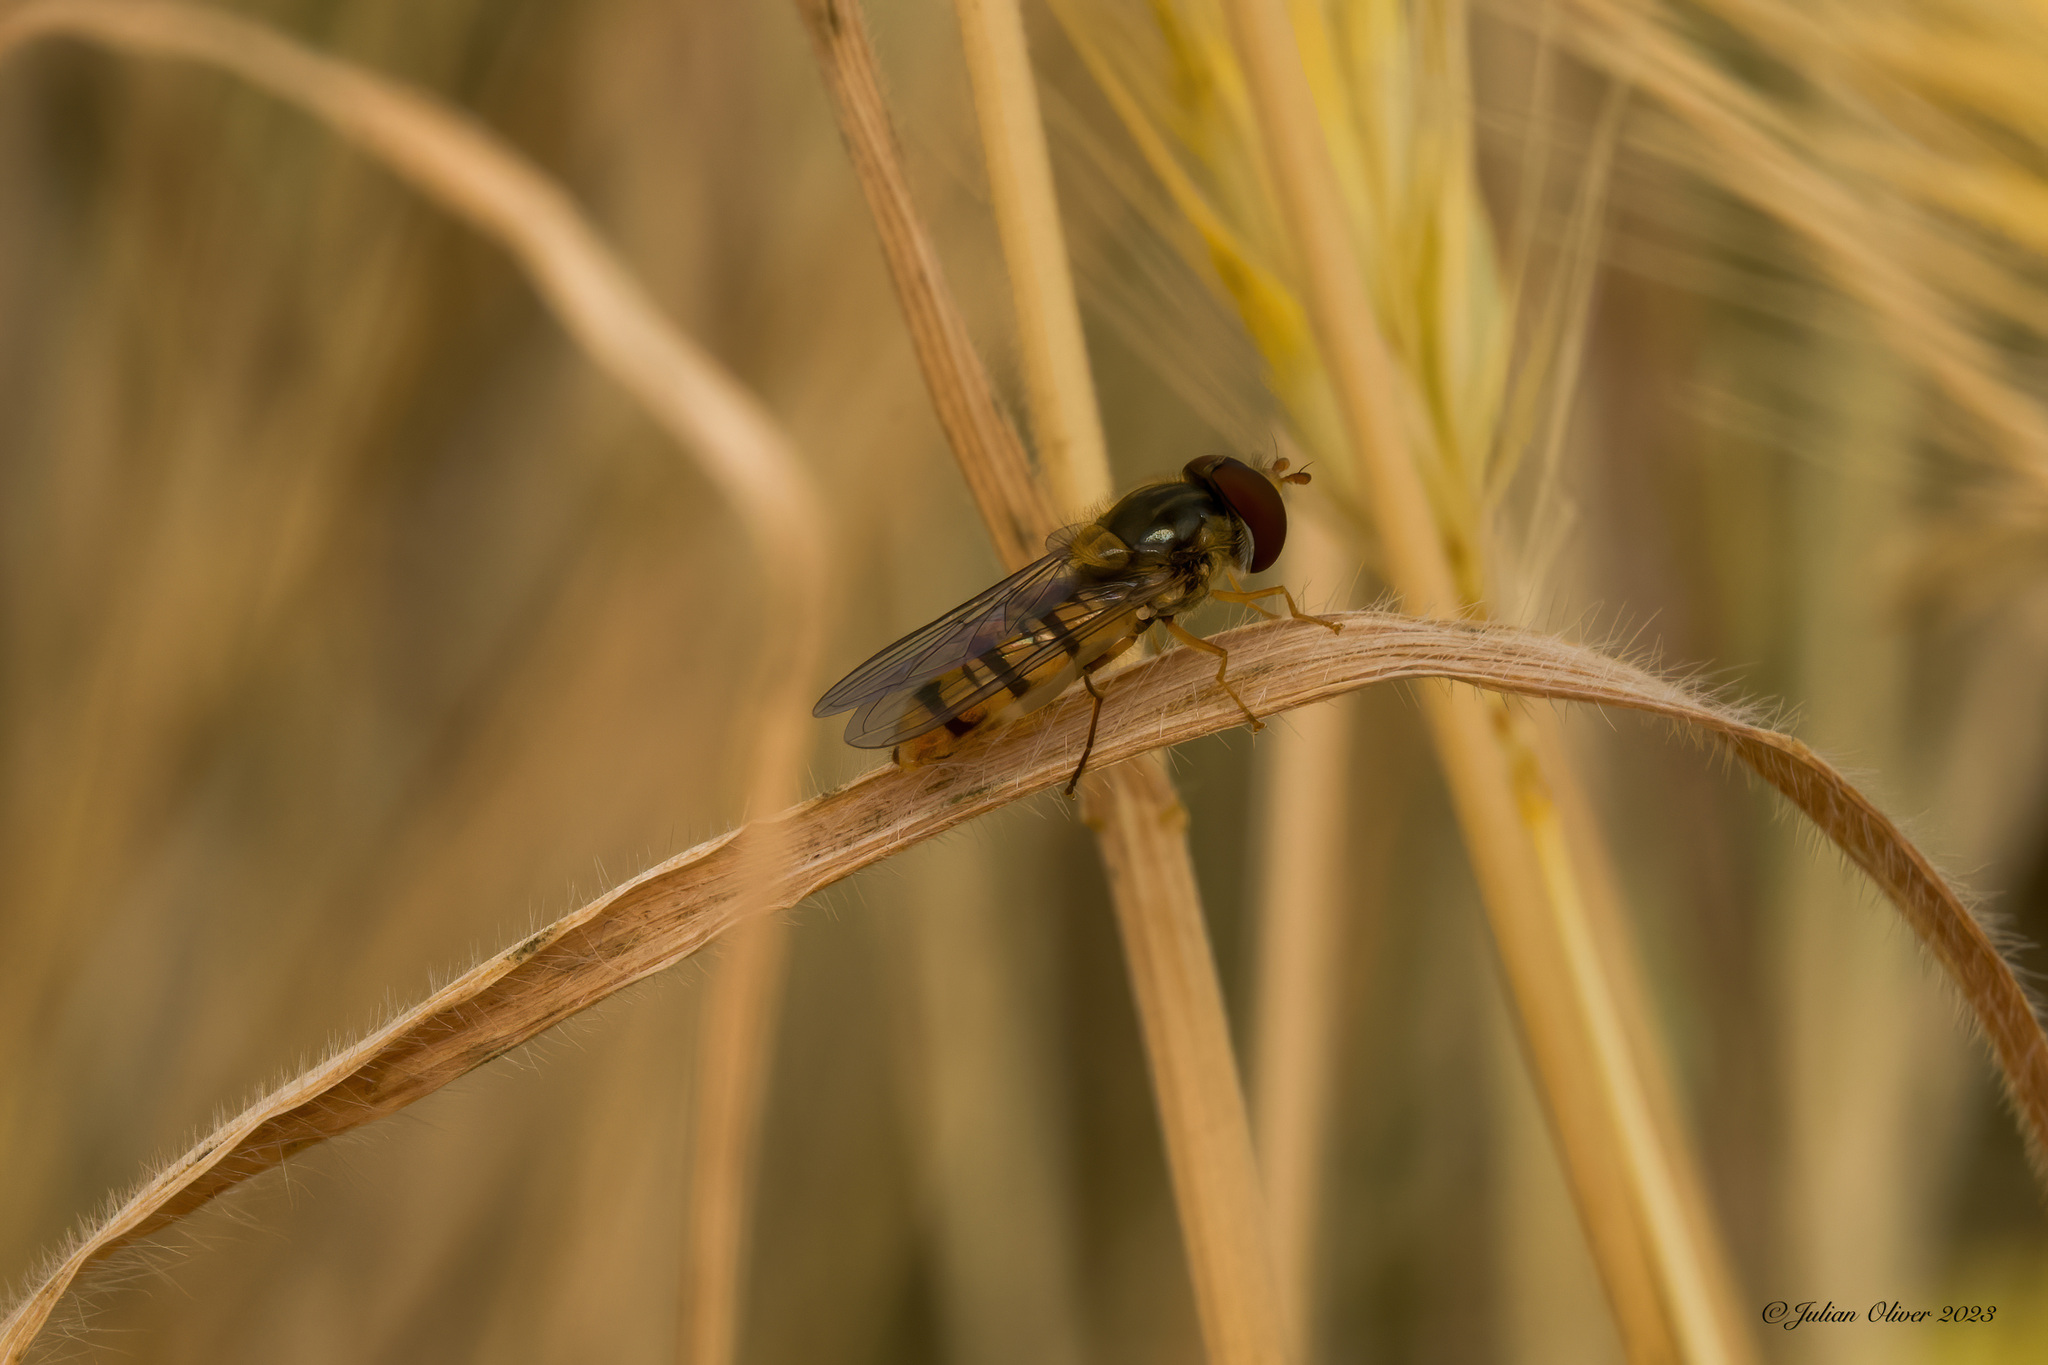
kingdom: Animalia
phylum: Arthropoda
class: Insecta
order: Diptera
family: Syrphidae
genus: Episyrphus
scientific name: Episyrphus balteatus
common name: Marmalade hoverfly
